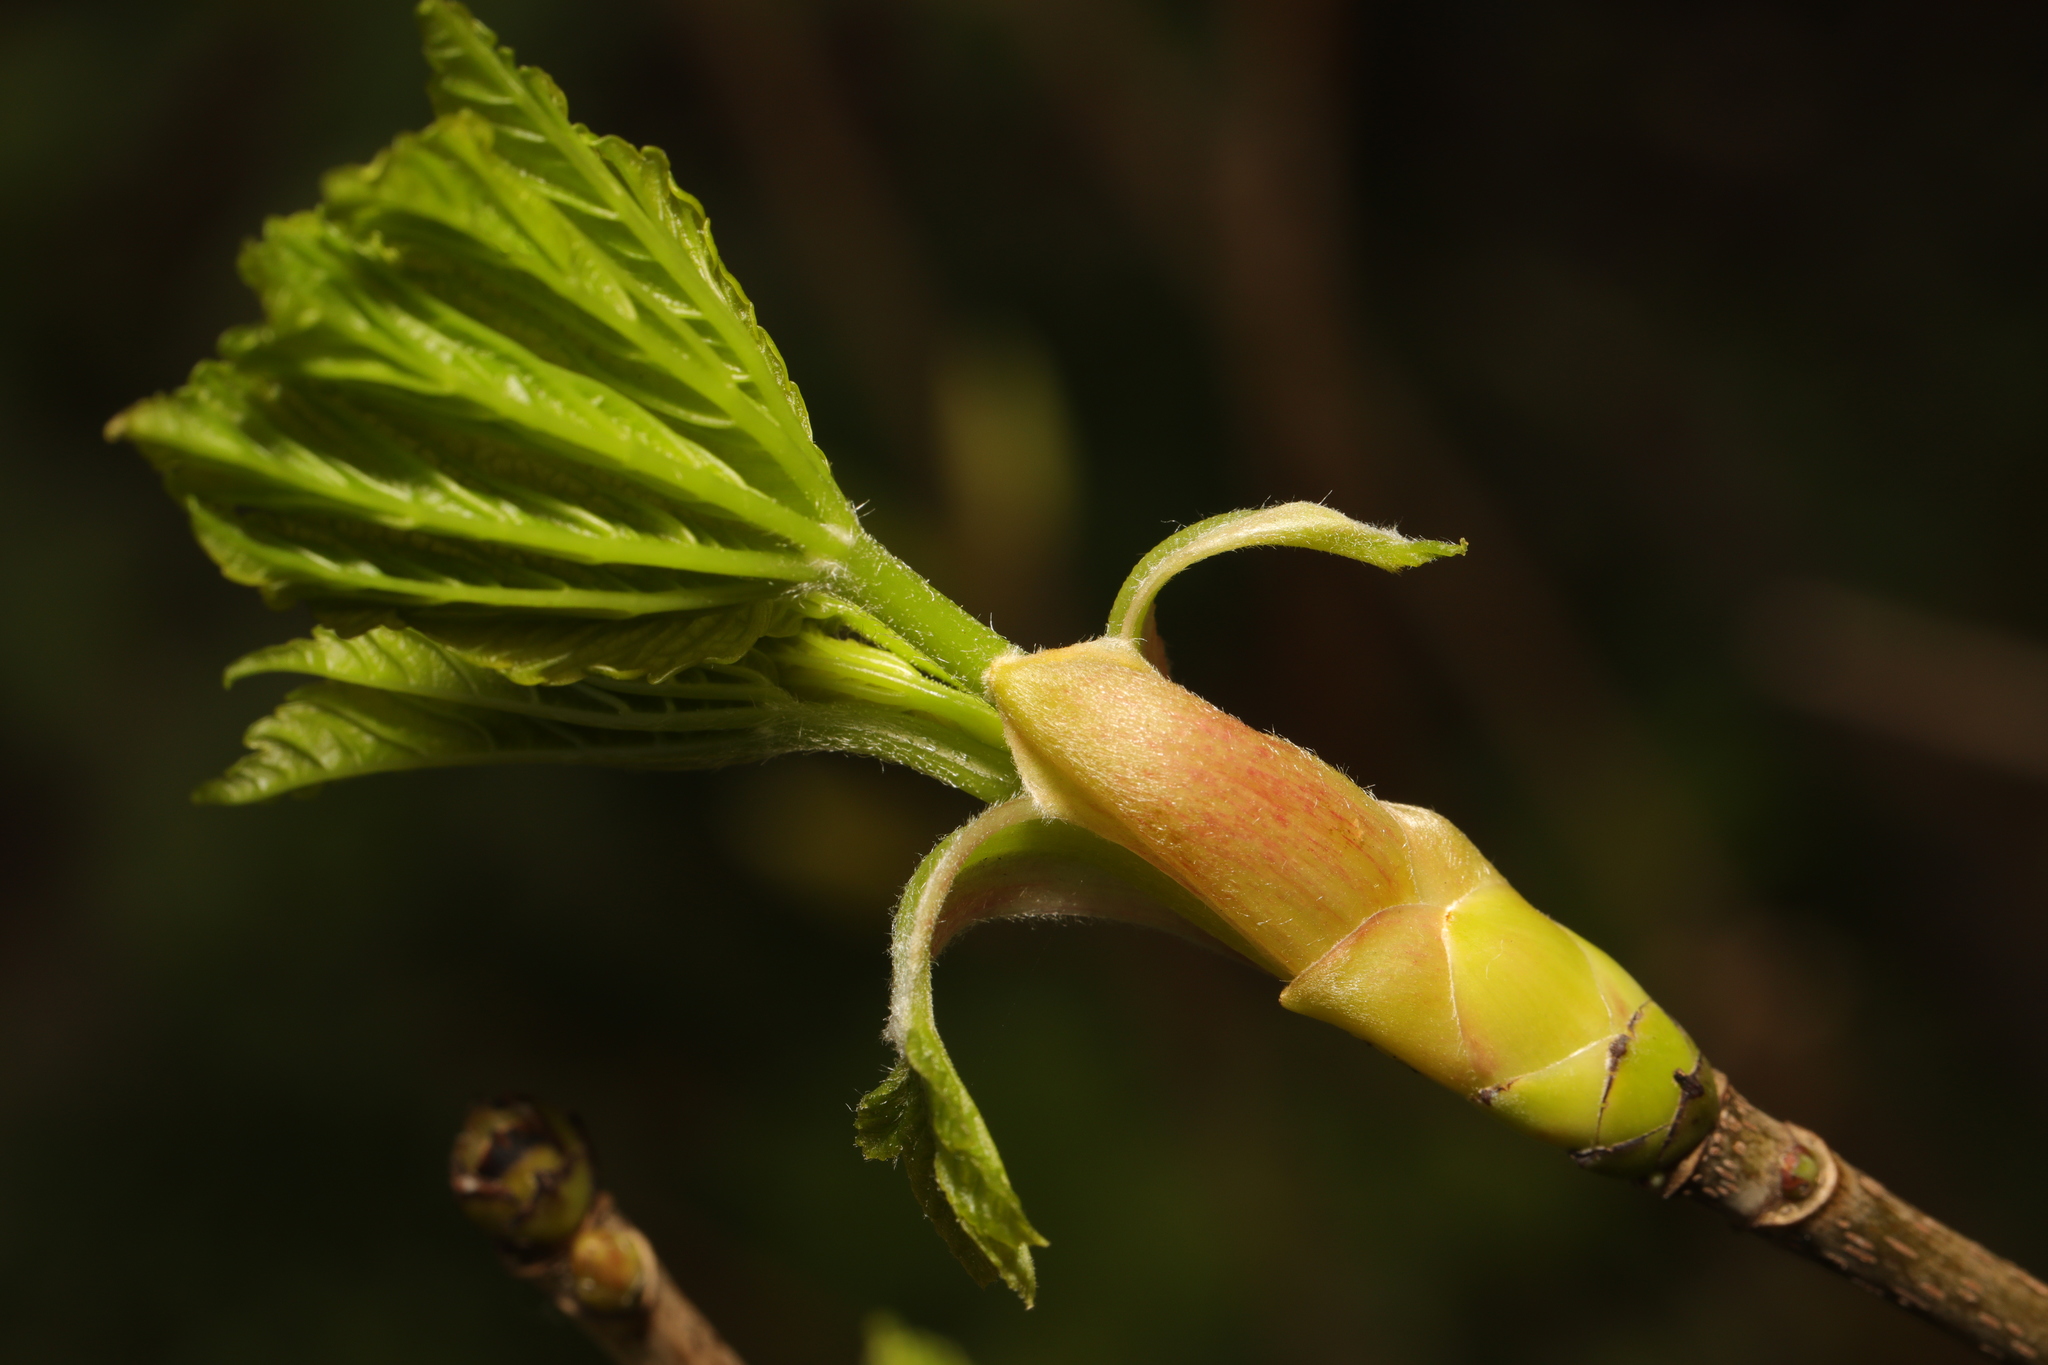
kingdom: Plantae
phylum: Tracheophyta
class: Magnoliopsida
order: Sapindales
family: Sapindaceae
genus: Acer
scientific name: Acer pseudoplatanus
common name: Sycamore
